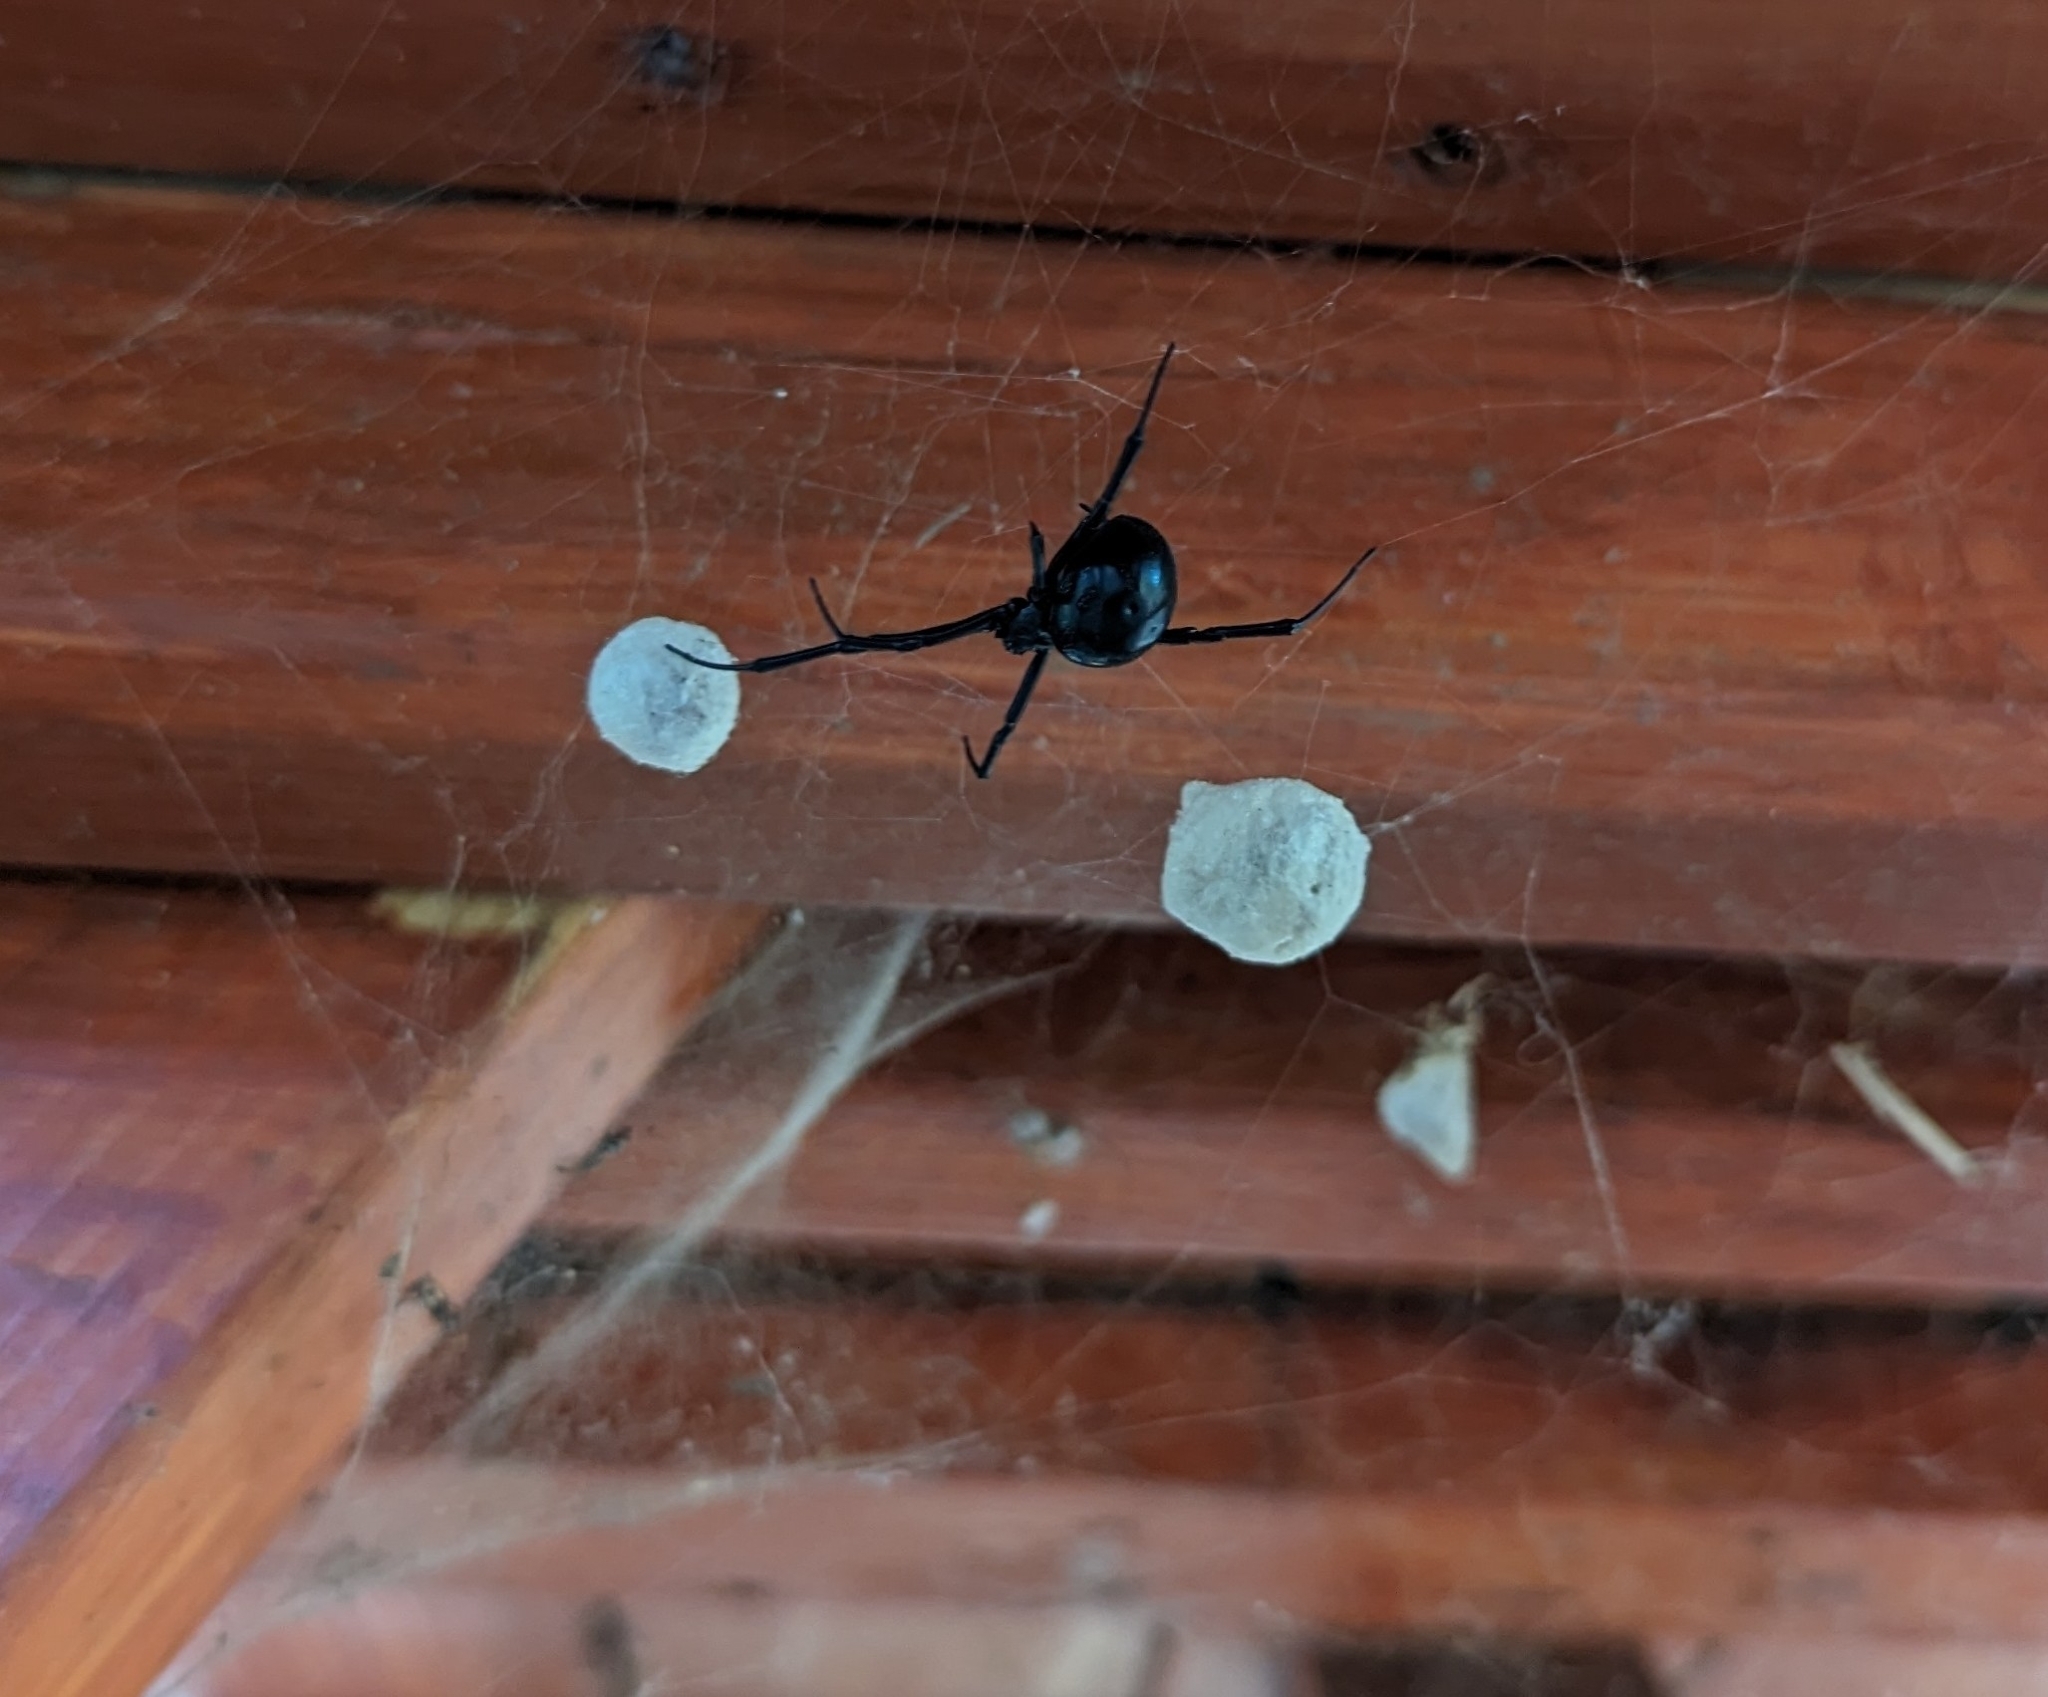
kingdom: Animalia
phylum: Arthropoda
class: Arachnida
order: Araneae
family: Theridiidae
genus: Latrodectus
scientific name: Latrodectus hesperus
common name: Western black widow
